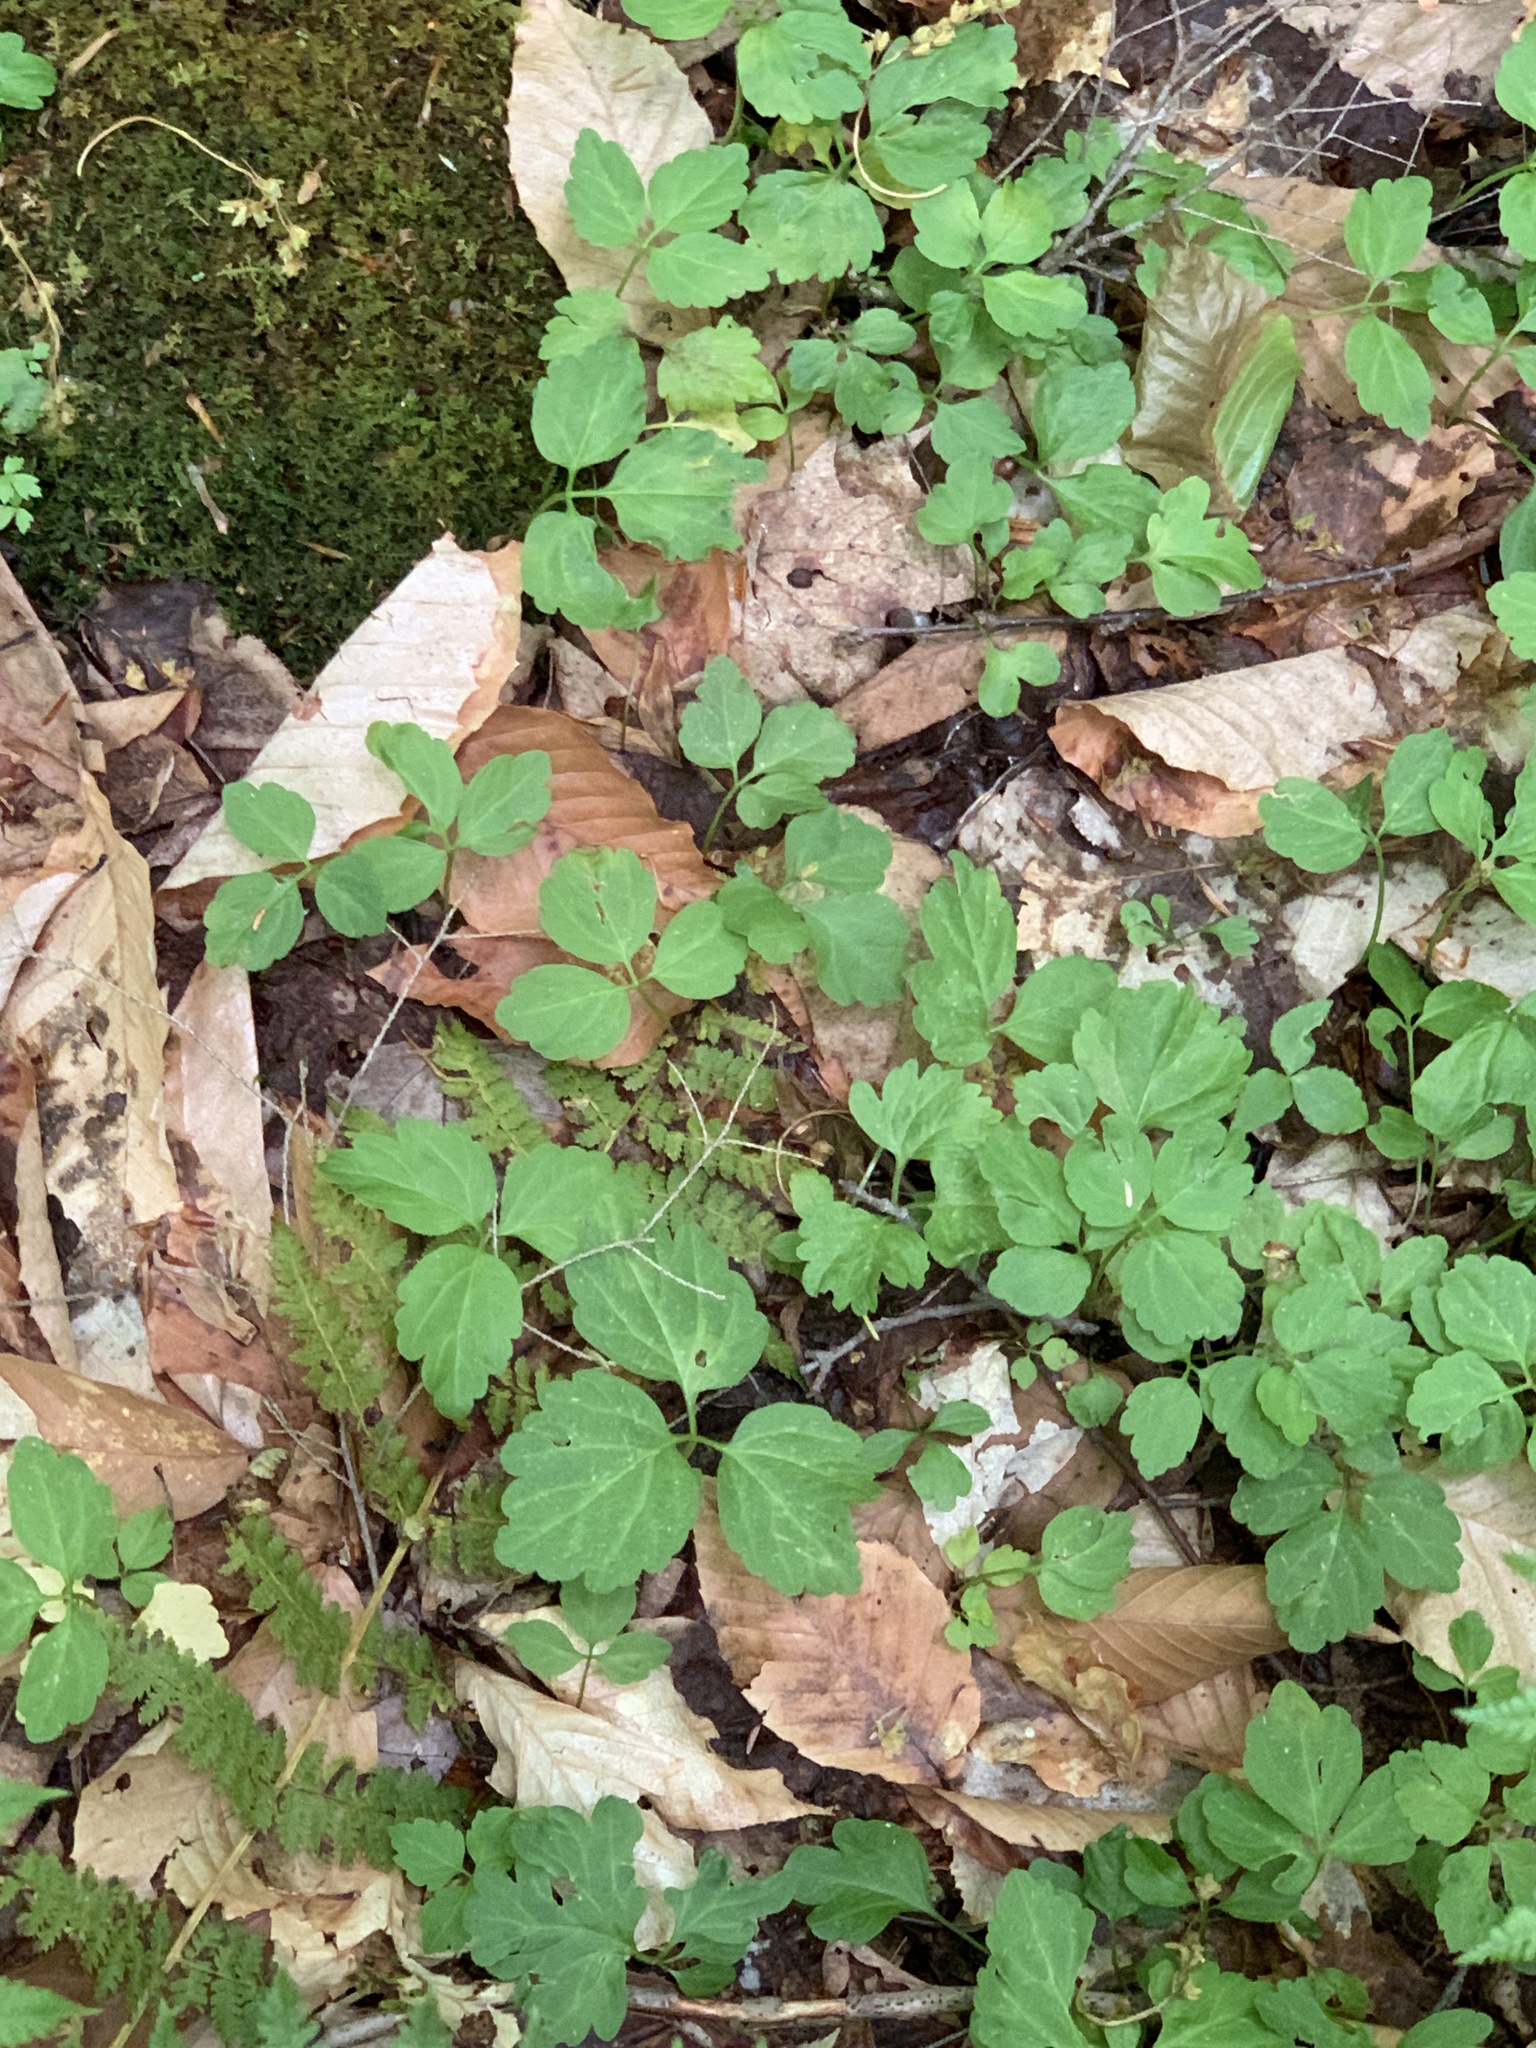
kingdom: Plantae
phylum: Tracheophyta
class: Magnoliopsida
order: Brassicales
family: Brassicaceae
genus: Cardamine
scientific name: Cardamine diphylla
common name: Broad-leaved toothwort
